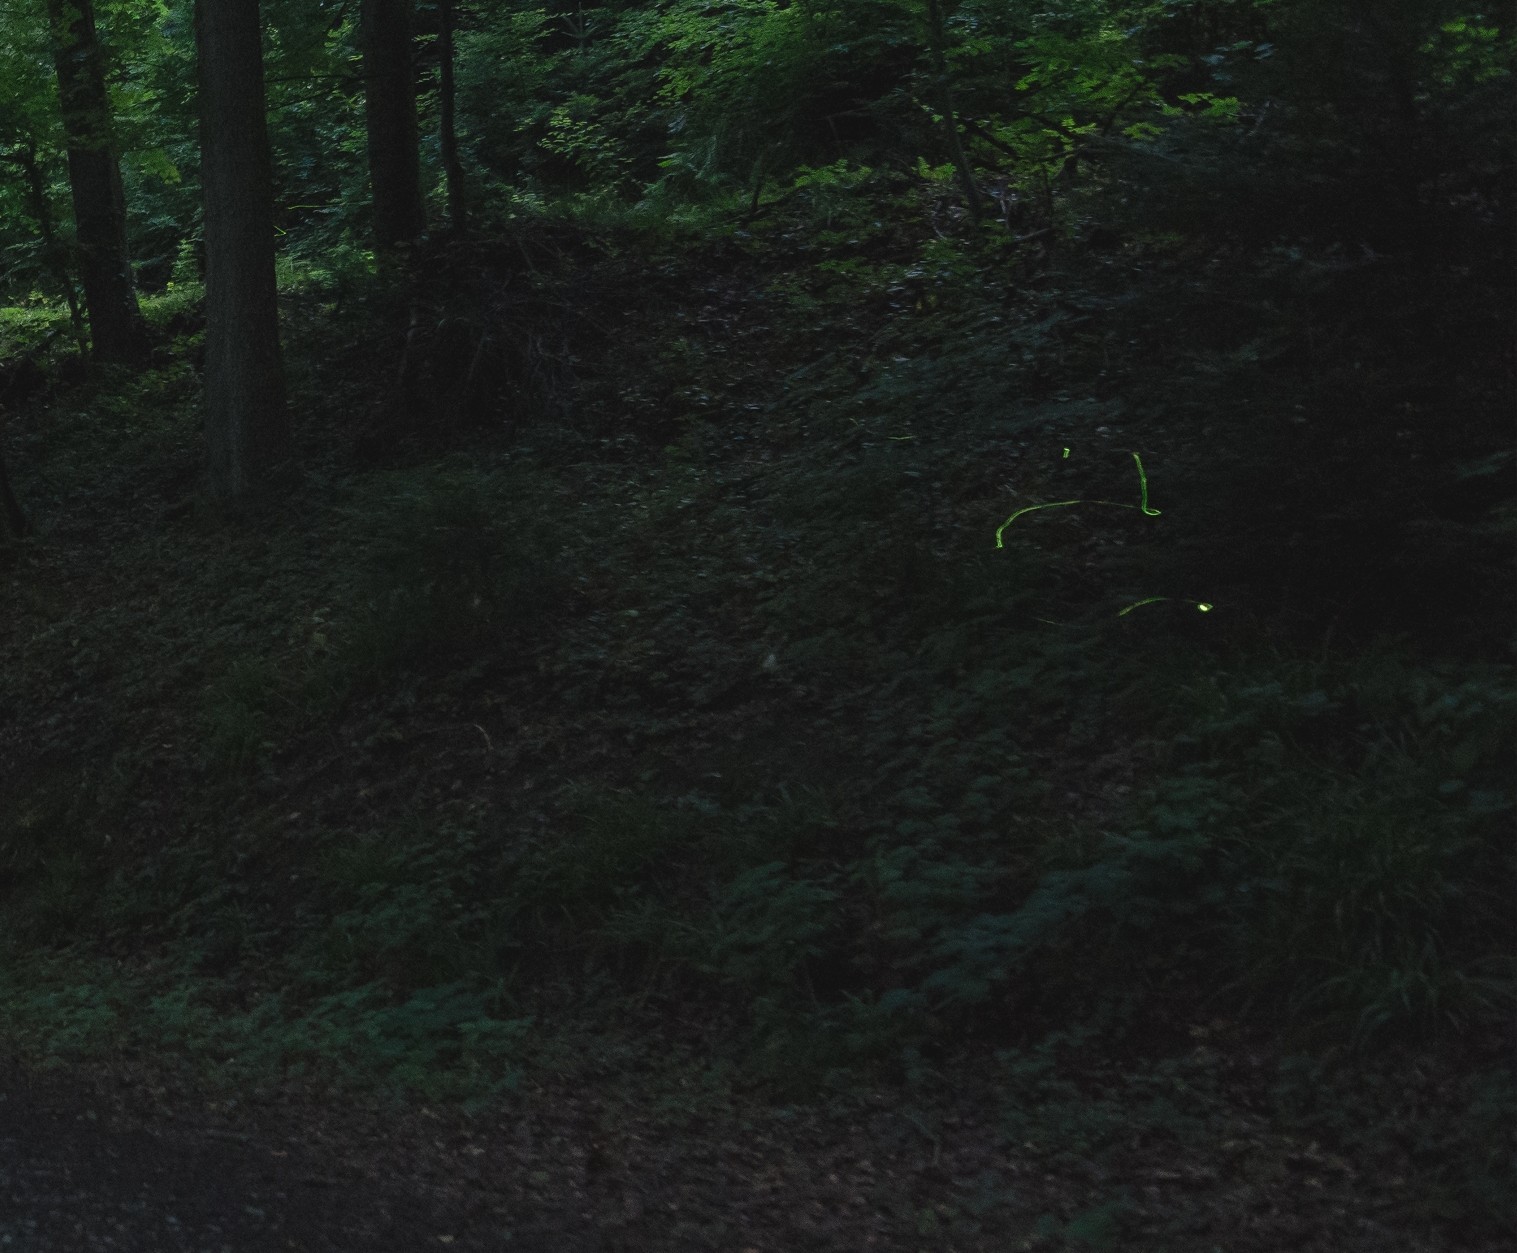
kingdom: Animalia
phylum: Arthropoda
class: Insecta
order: Coleoptera
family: Lampyridae
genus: Lamprohiza
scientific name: Lamprohiza splendidula
